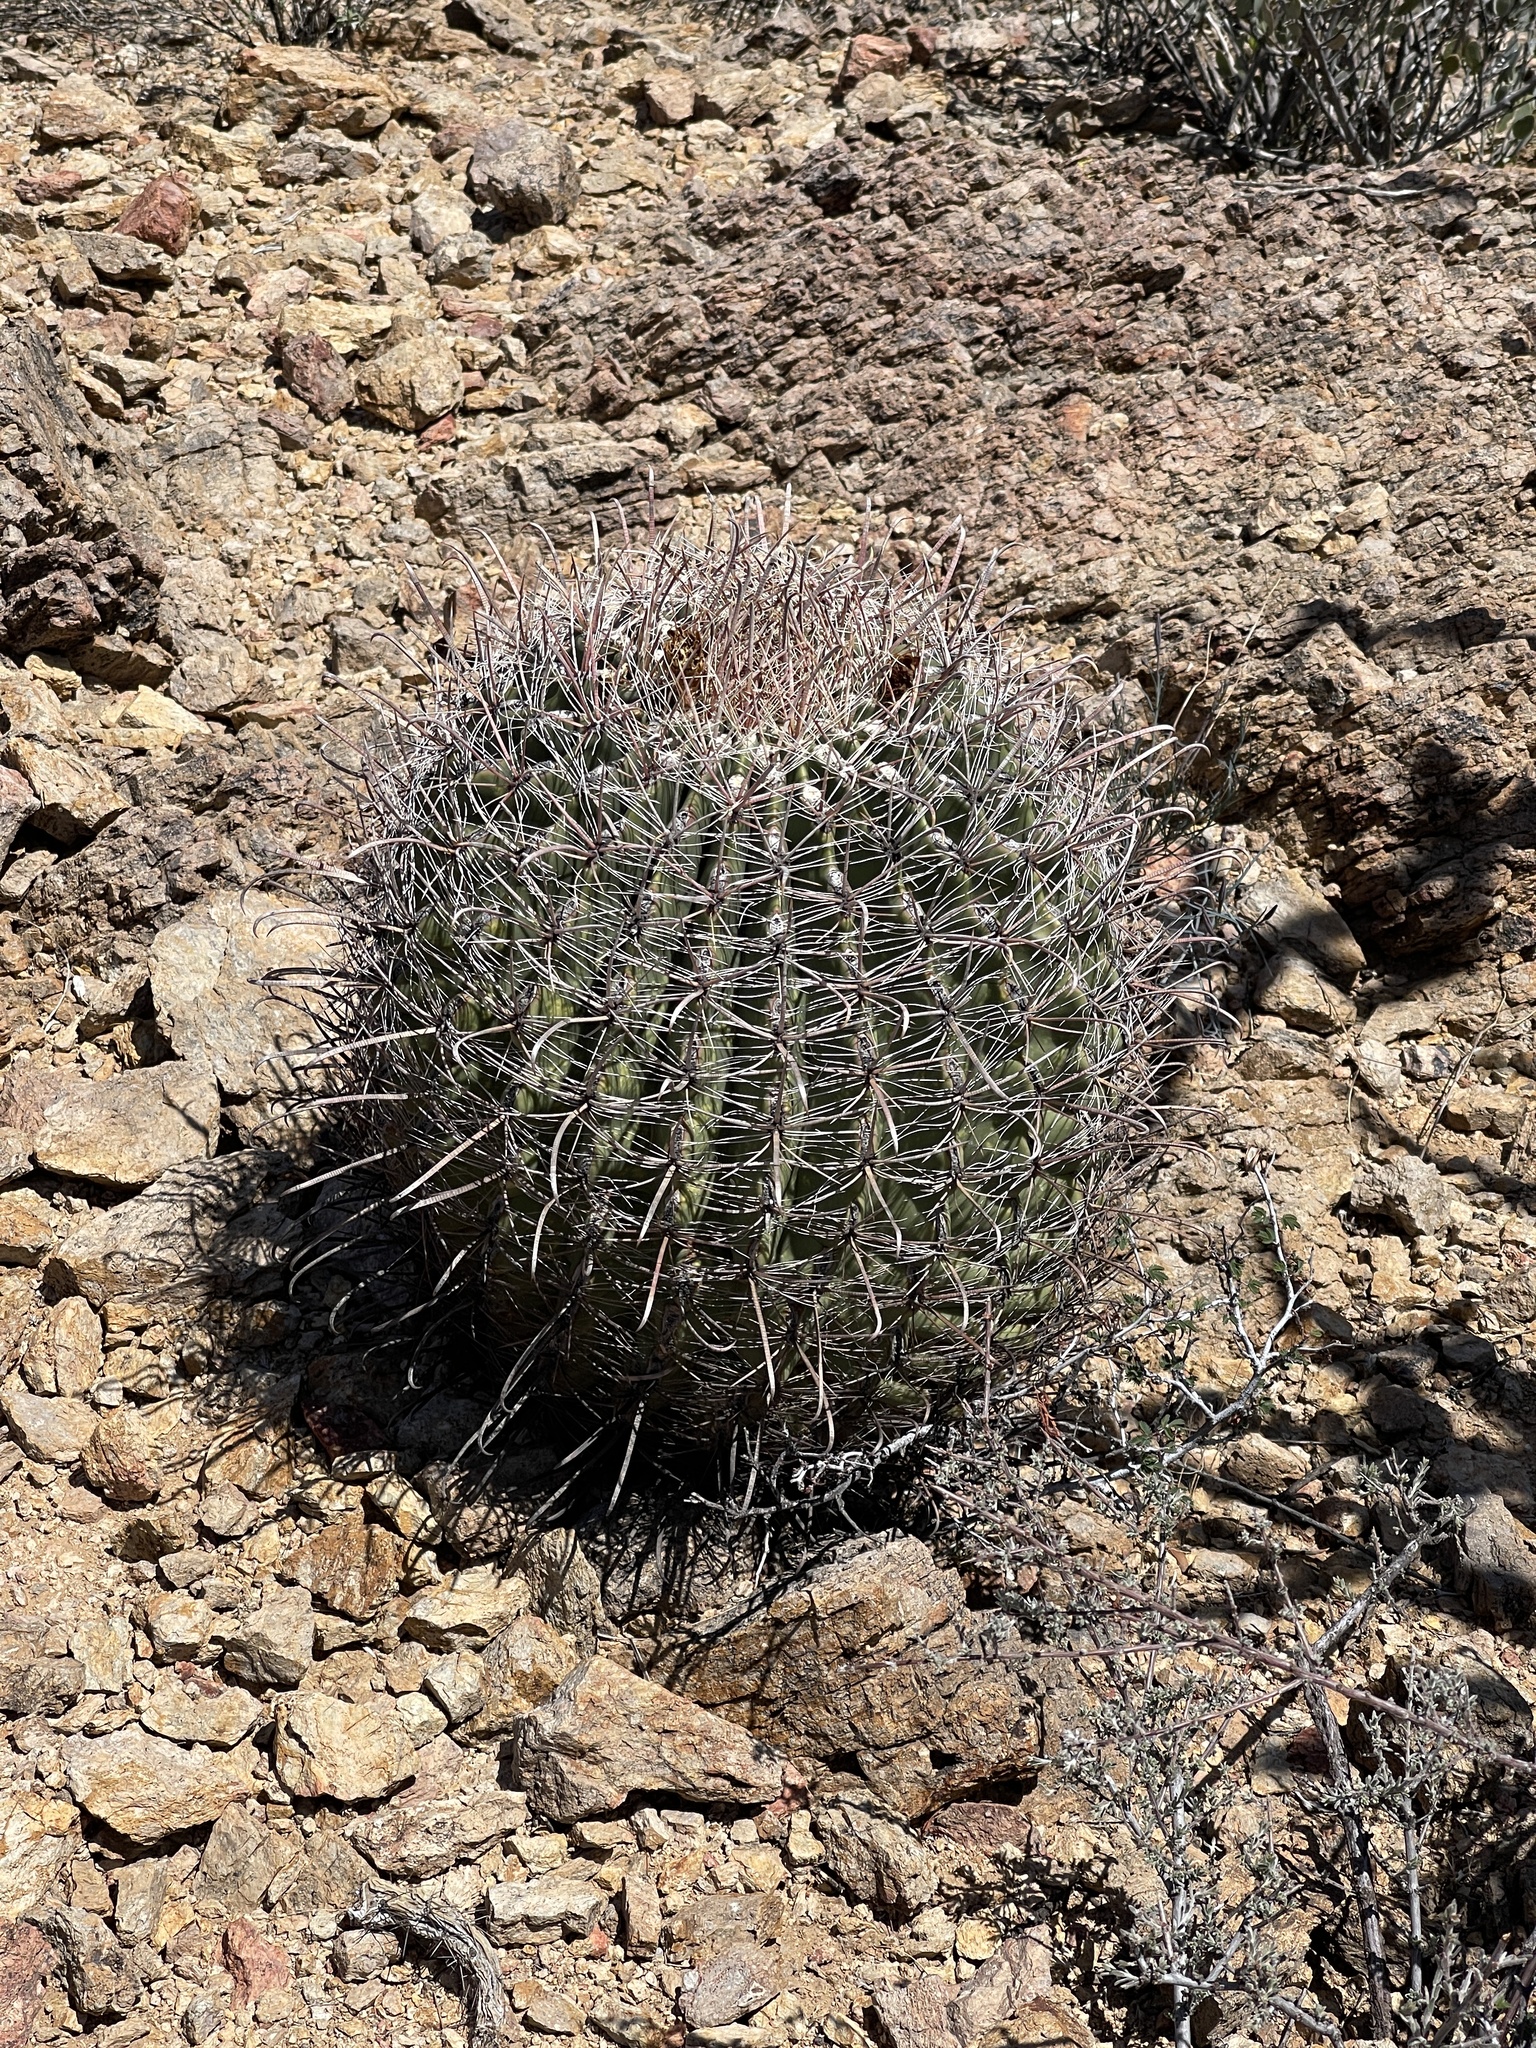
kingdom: Plantae
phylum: Tracheophyta
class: Magnoliopsida
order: Caryophyllales
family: Cactaceae
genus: Ferocactus
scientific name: Ferocactus wislizeni
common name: Candy barrel cactus
